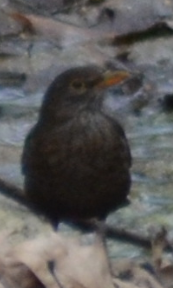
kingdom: Animalia
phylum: Chordata
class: Aves
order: Passeriformes
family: Turdidae
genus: Turdus
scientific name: Turdus merula
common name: Common blackbird
